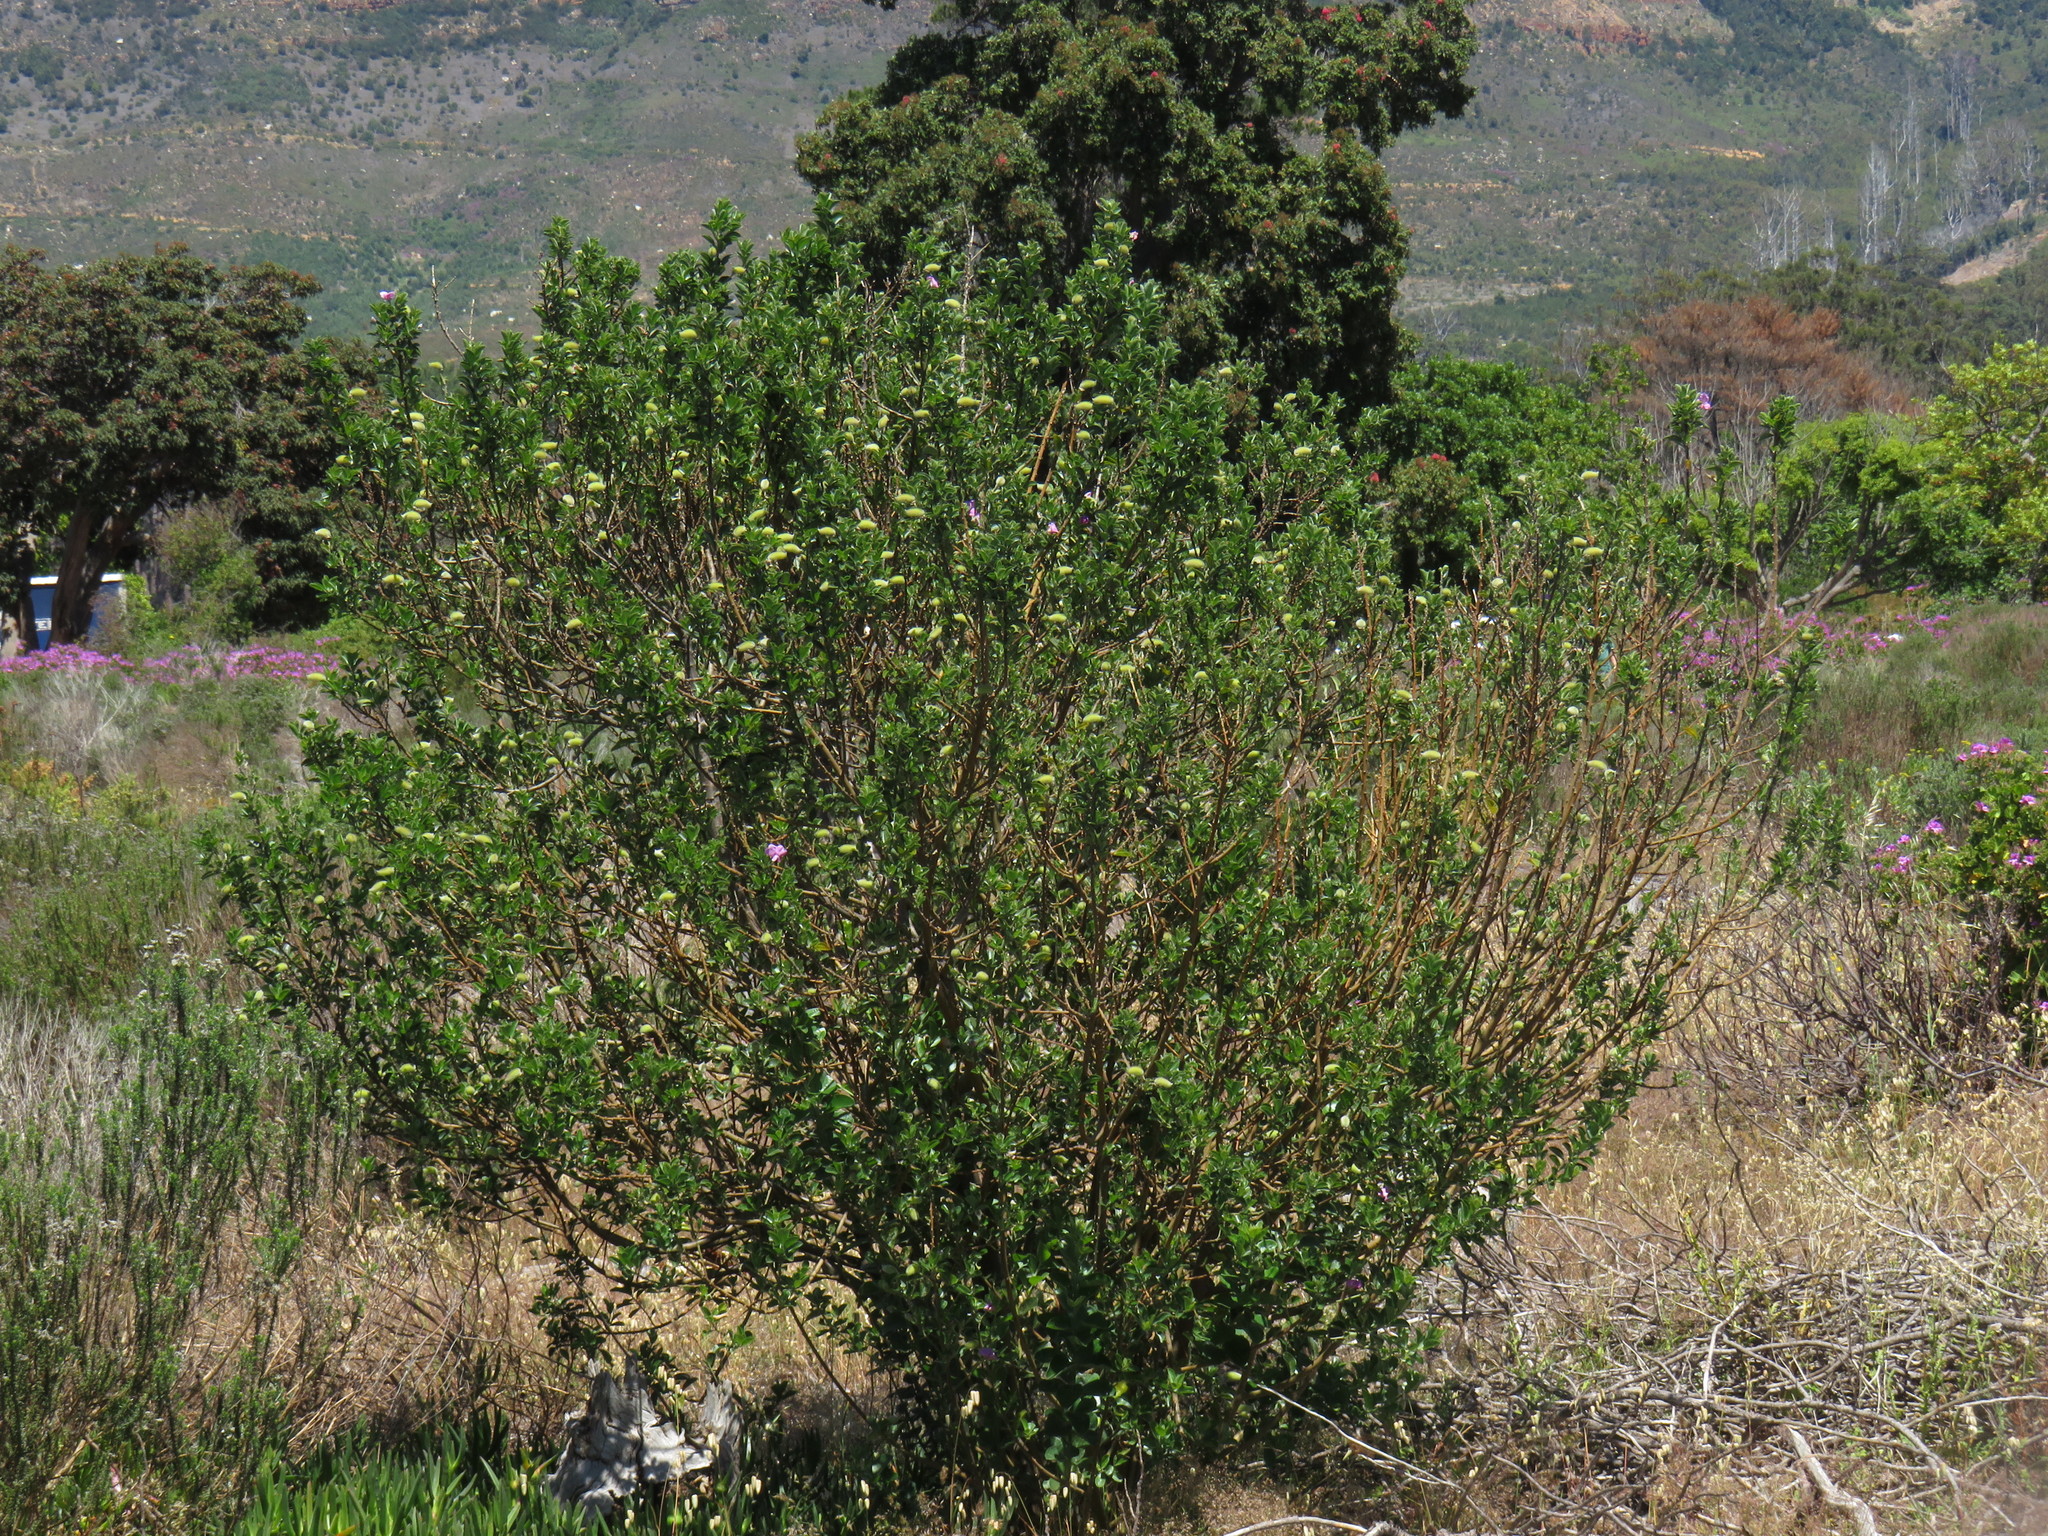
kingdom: Plantae
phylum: Tracheophyta
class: Magnoliopsida
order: Fabales
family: Fabaceae
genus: Podalyria
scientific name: Podalyria calyptrata
